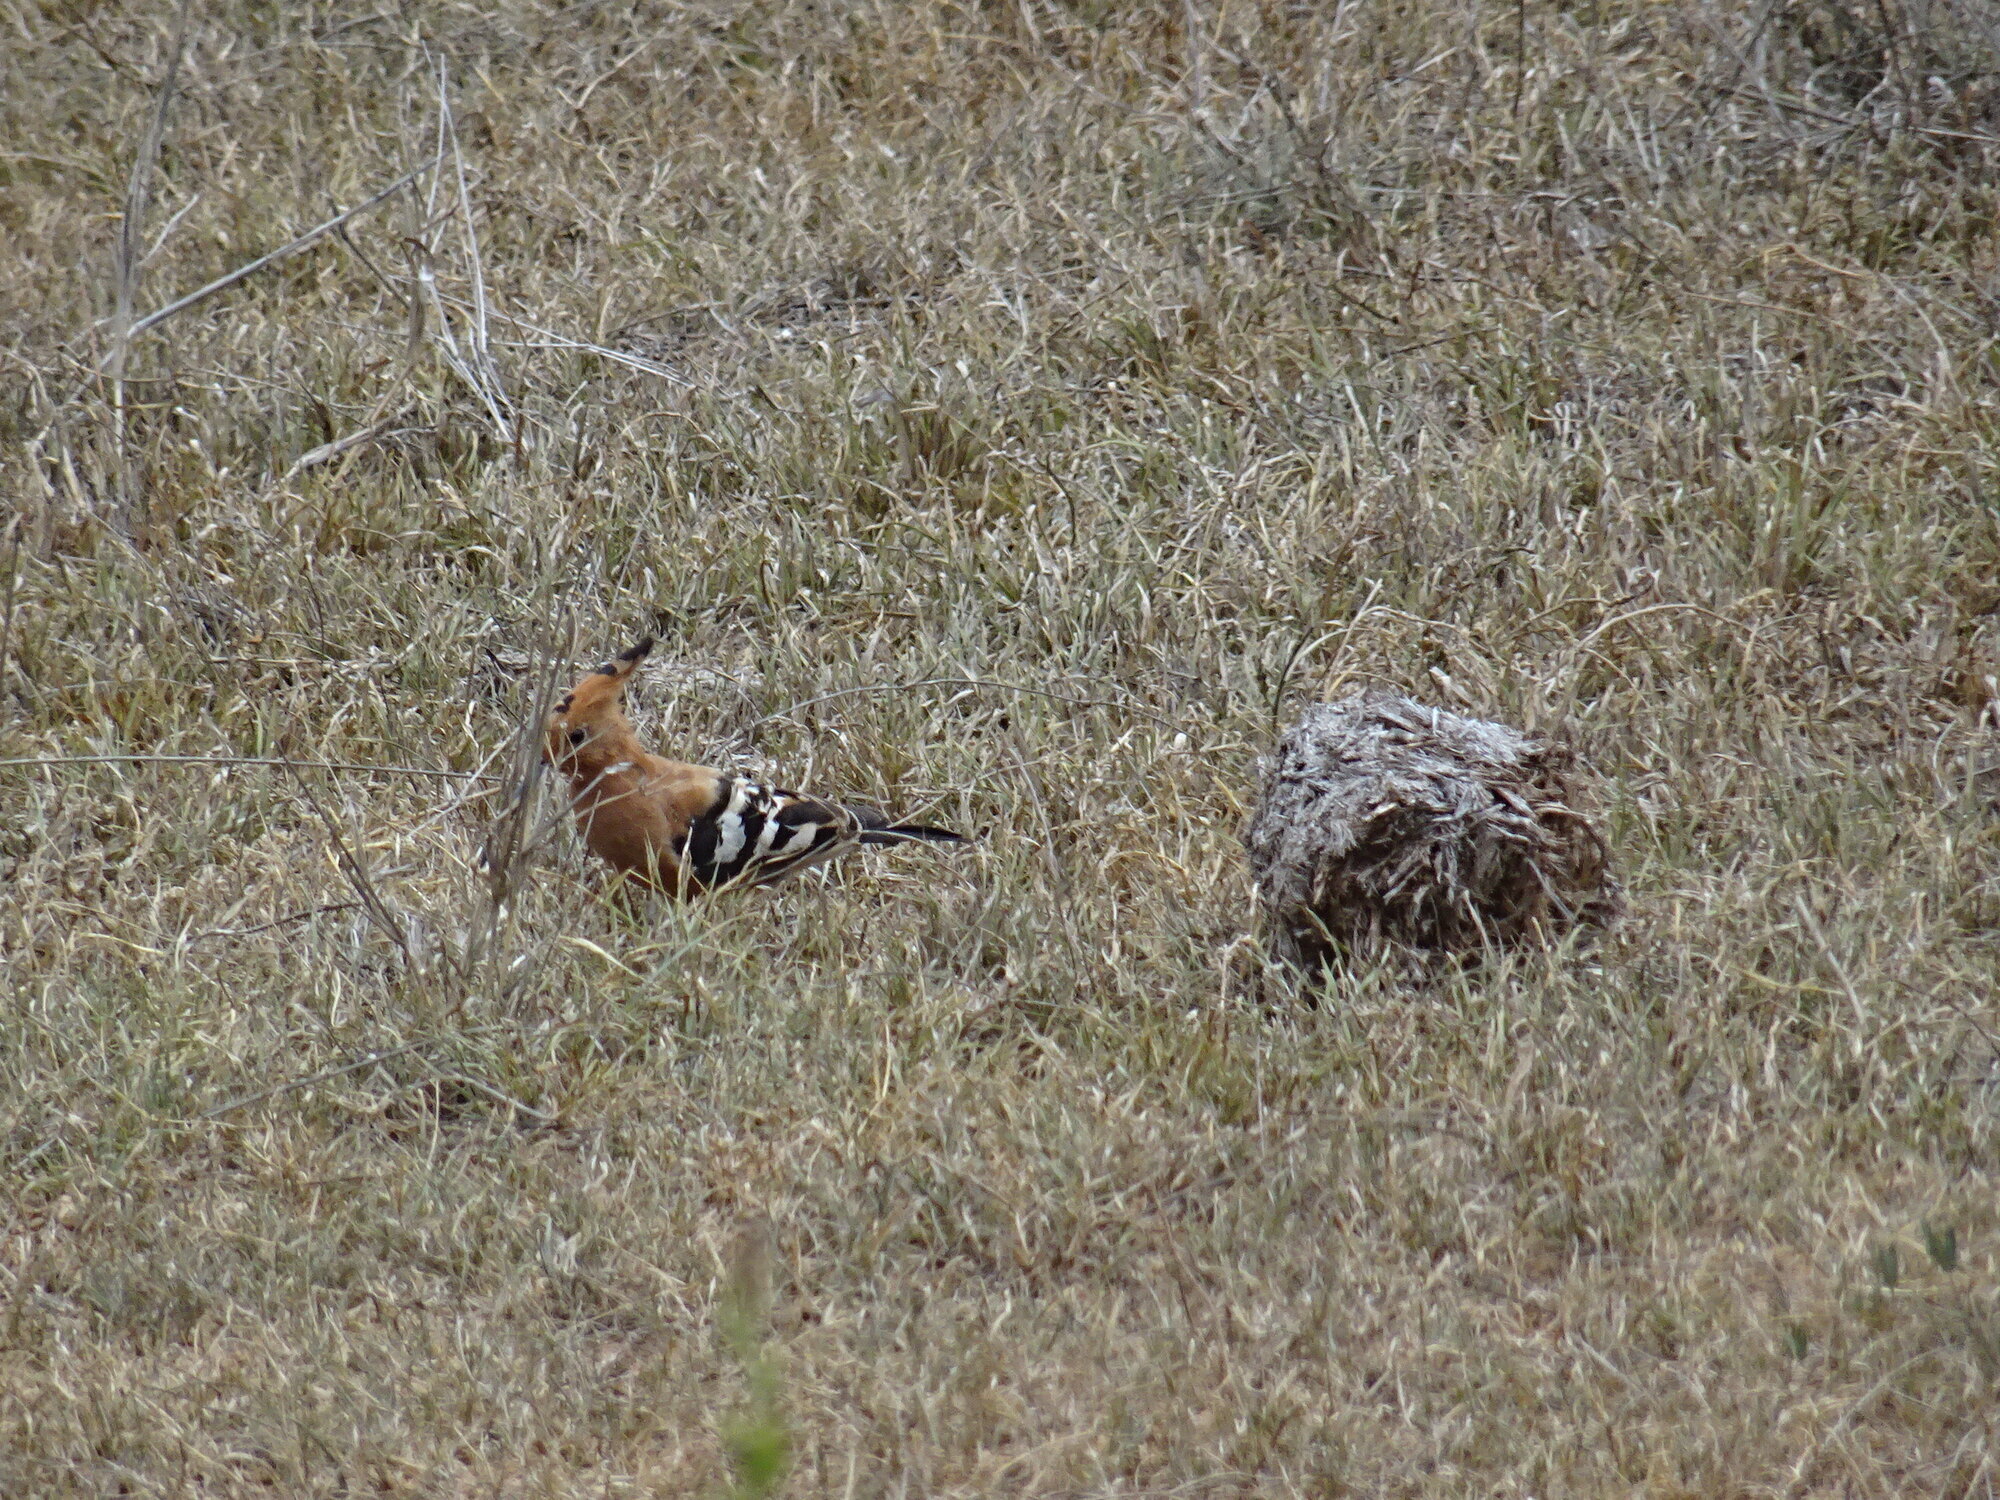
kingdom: Animalia
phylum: Chordata
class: Aves
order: Bucerotiformes
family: Upupidae
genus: Upupa
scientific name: Upupa africana
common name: African hoopoe
